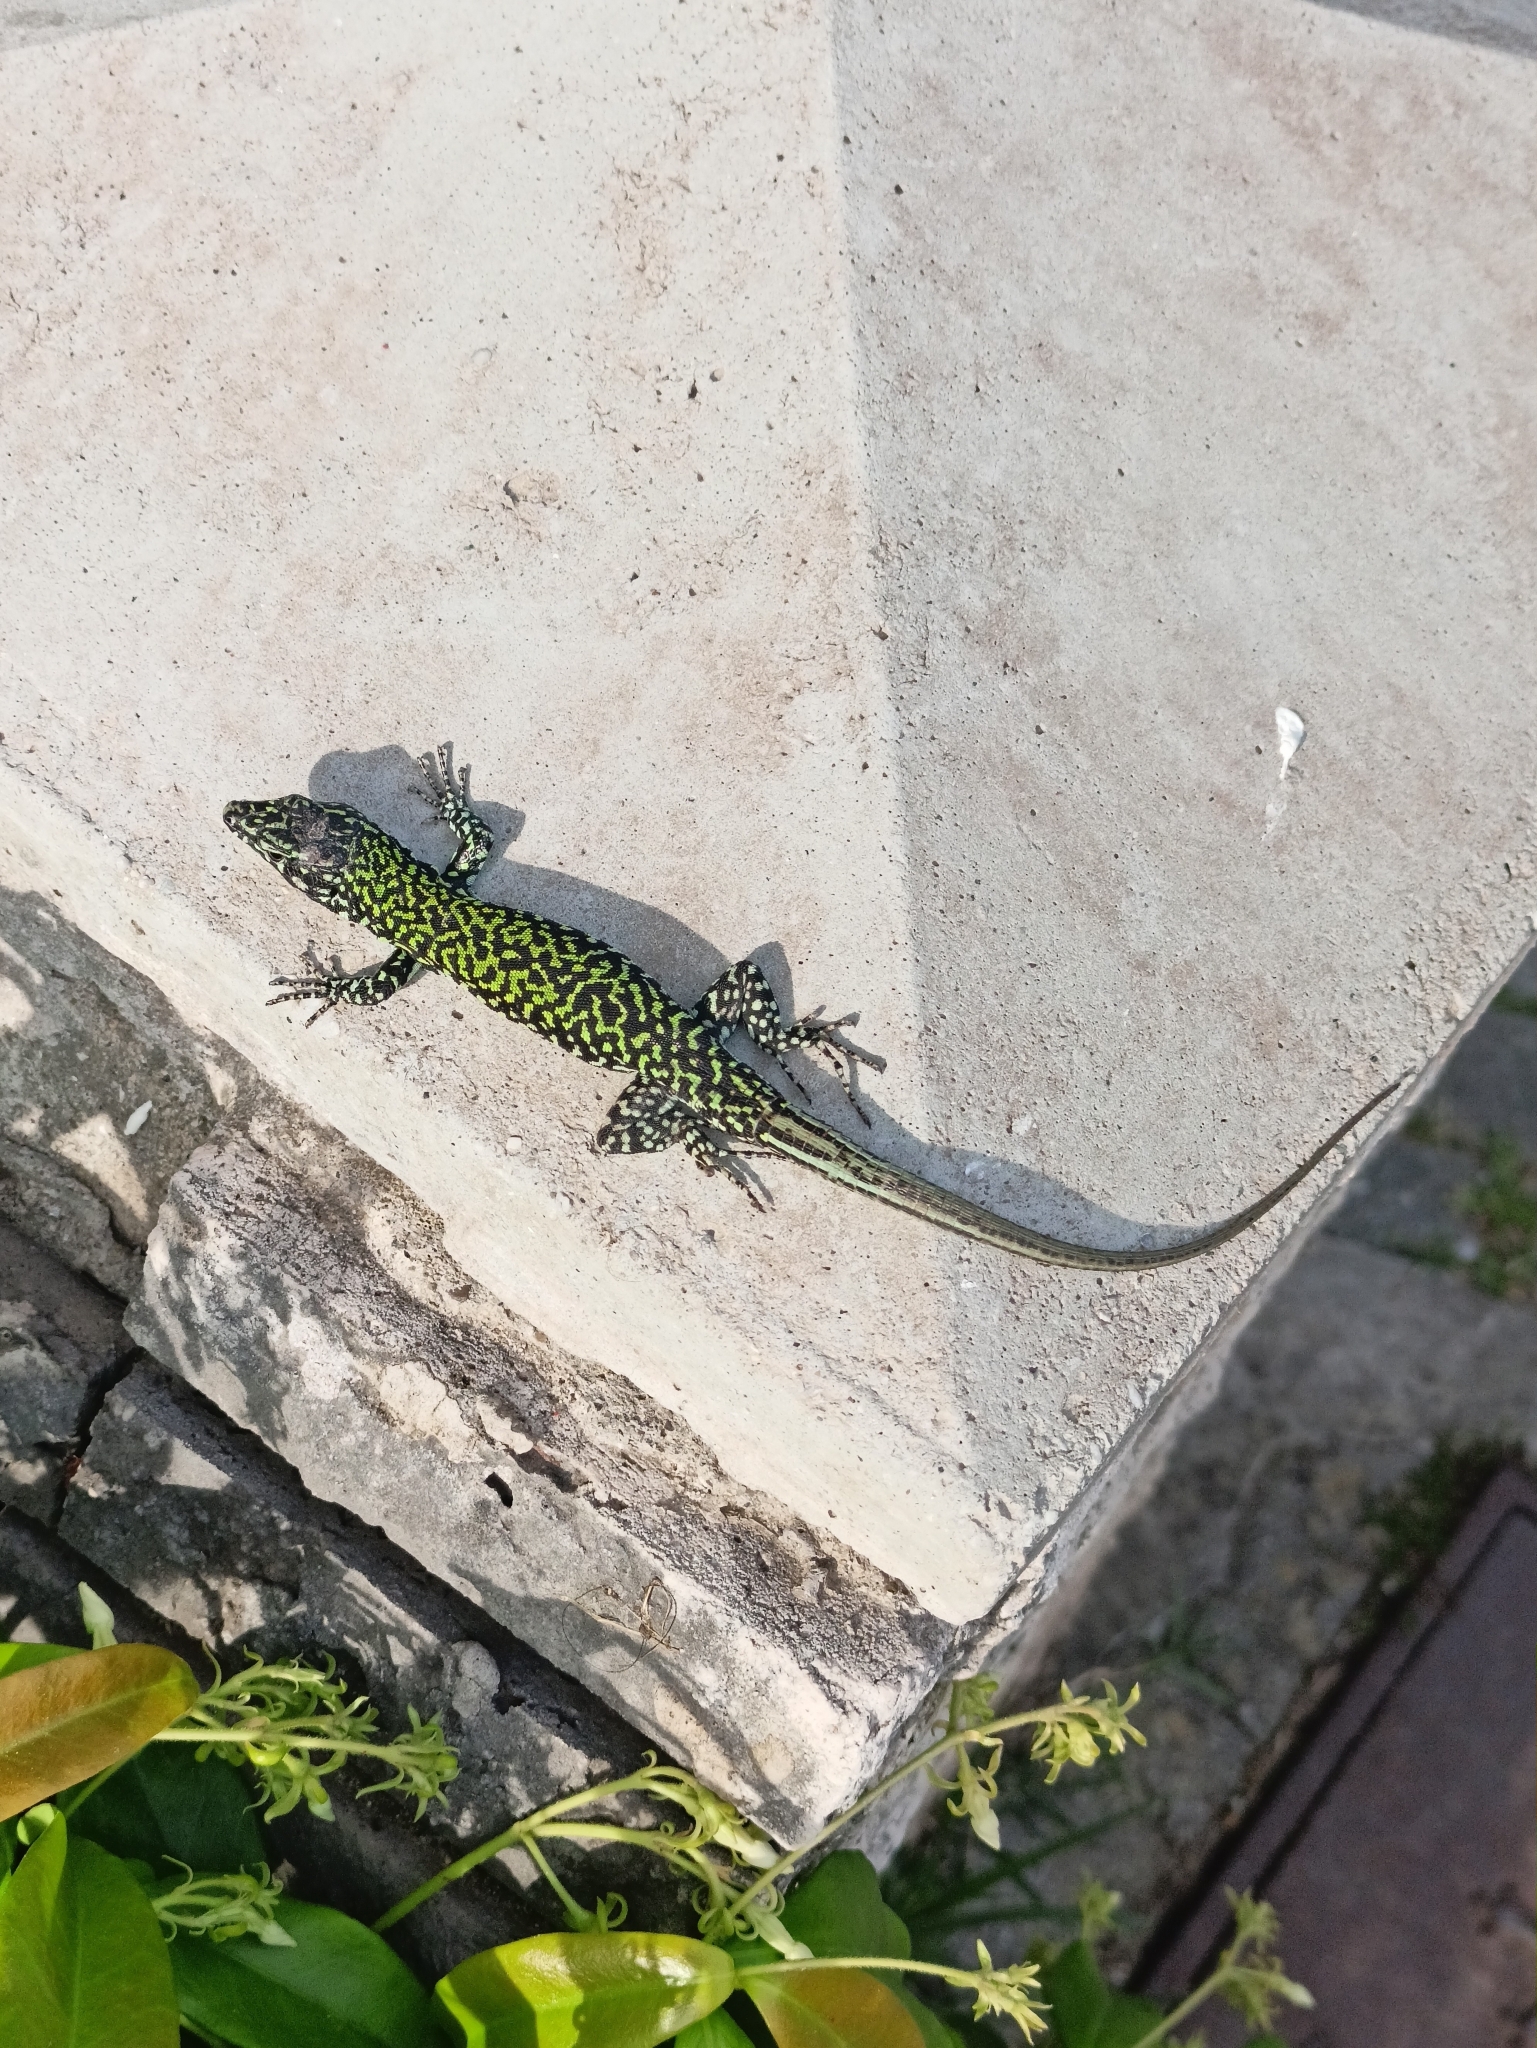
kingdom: Animalia
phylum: Chordata
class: Squamata
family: Lacertidae
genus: Podarcis
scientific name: Podarcis muralis
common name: Common wall lizard
